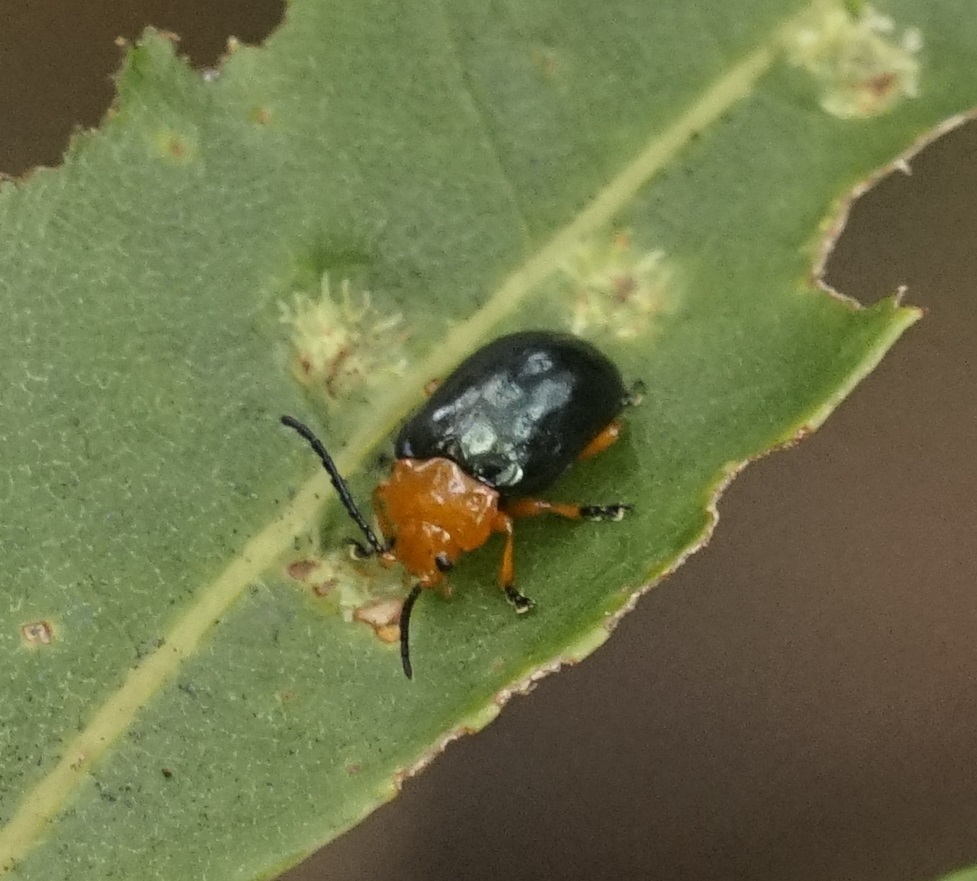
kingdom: Animalia
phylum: Arthropoda
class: Insecta
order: Coleoptera
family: Chrysomelidae
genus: Lamprolina
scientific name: Lamprolina
